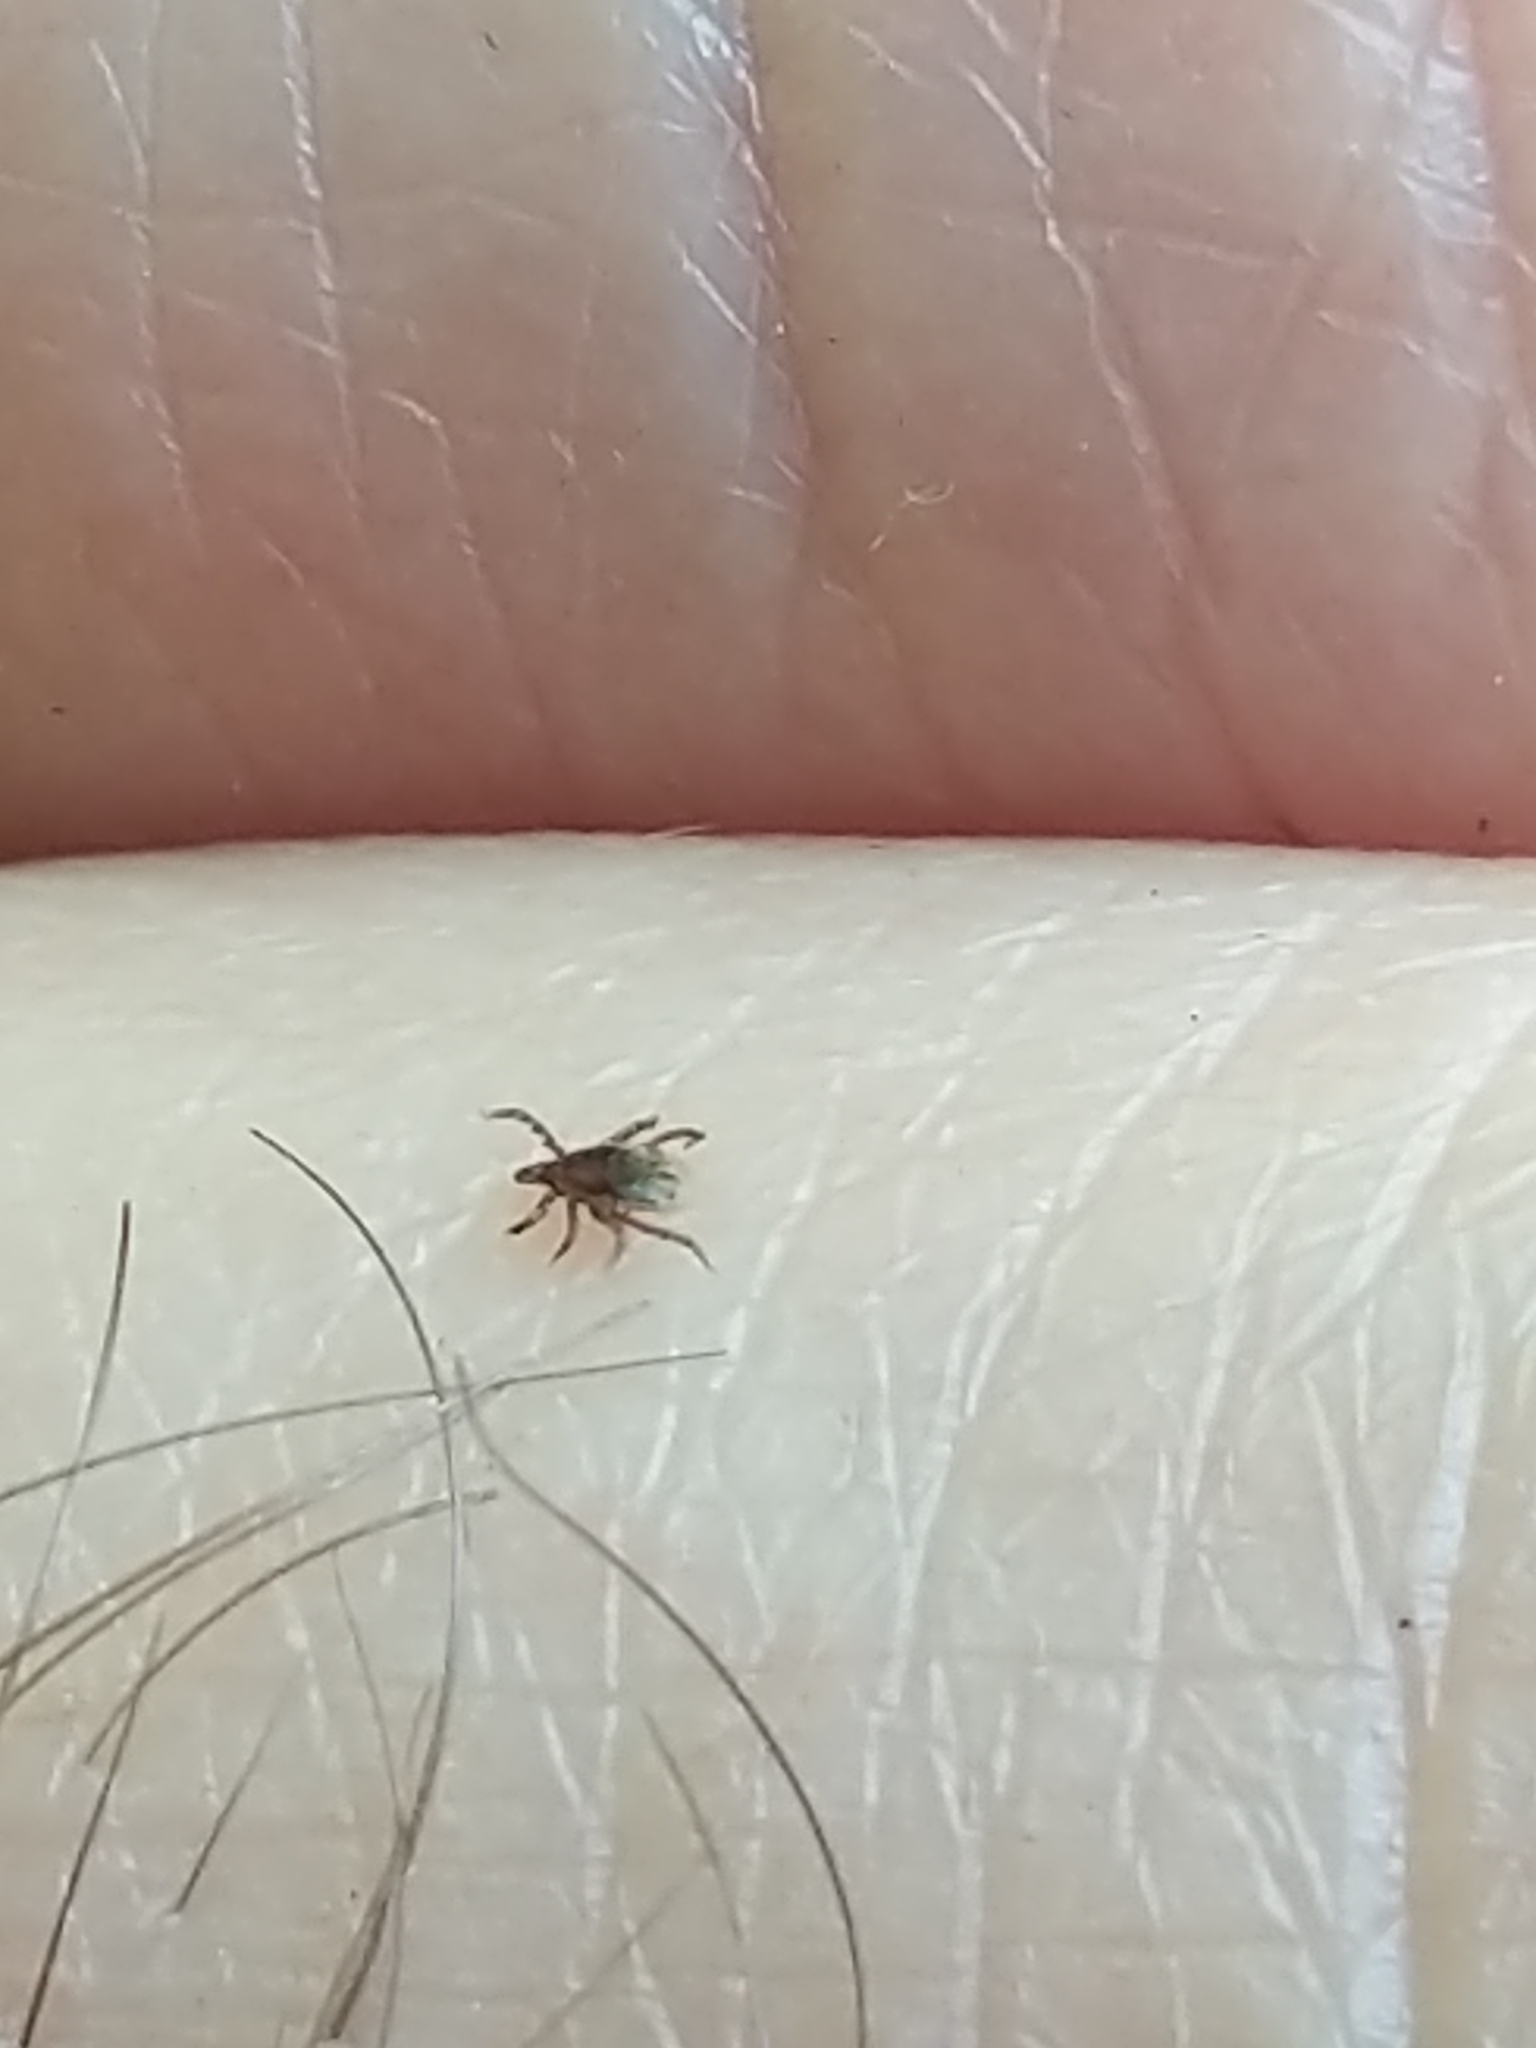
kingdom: Animalia
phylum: Arthropoda
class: Arachnida
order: Ixodida
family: Ixodidae
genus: Ixodes
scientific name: Ixodes scapularis
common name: Black legged tick
